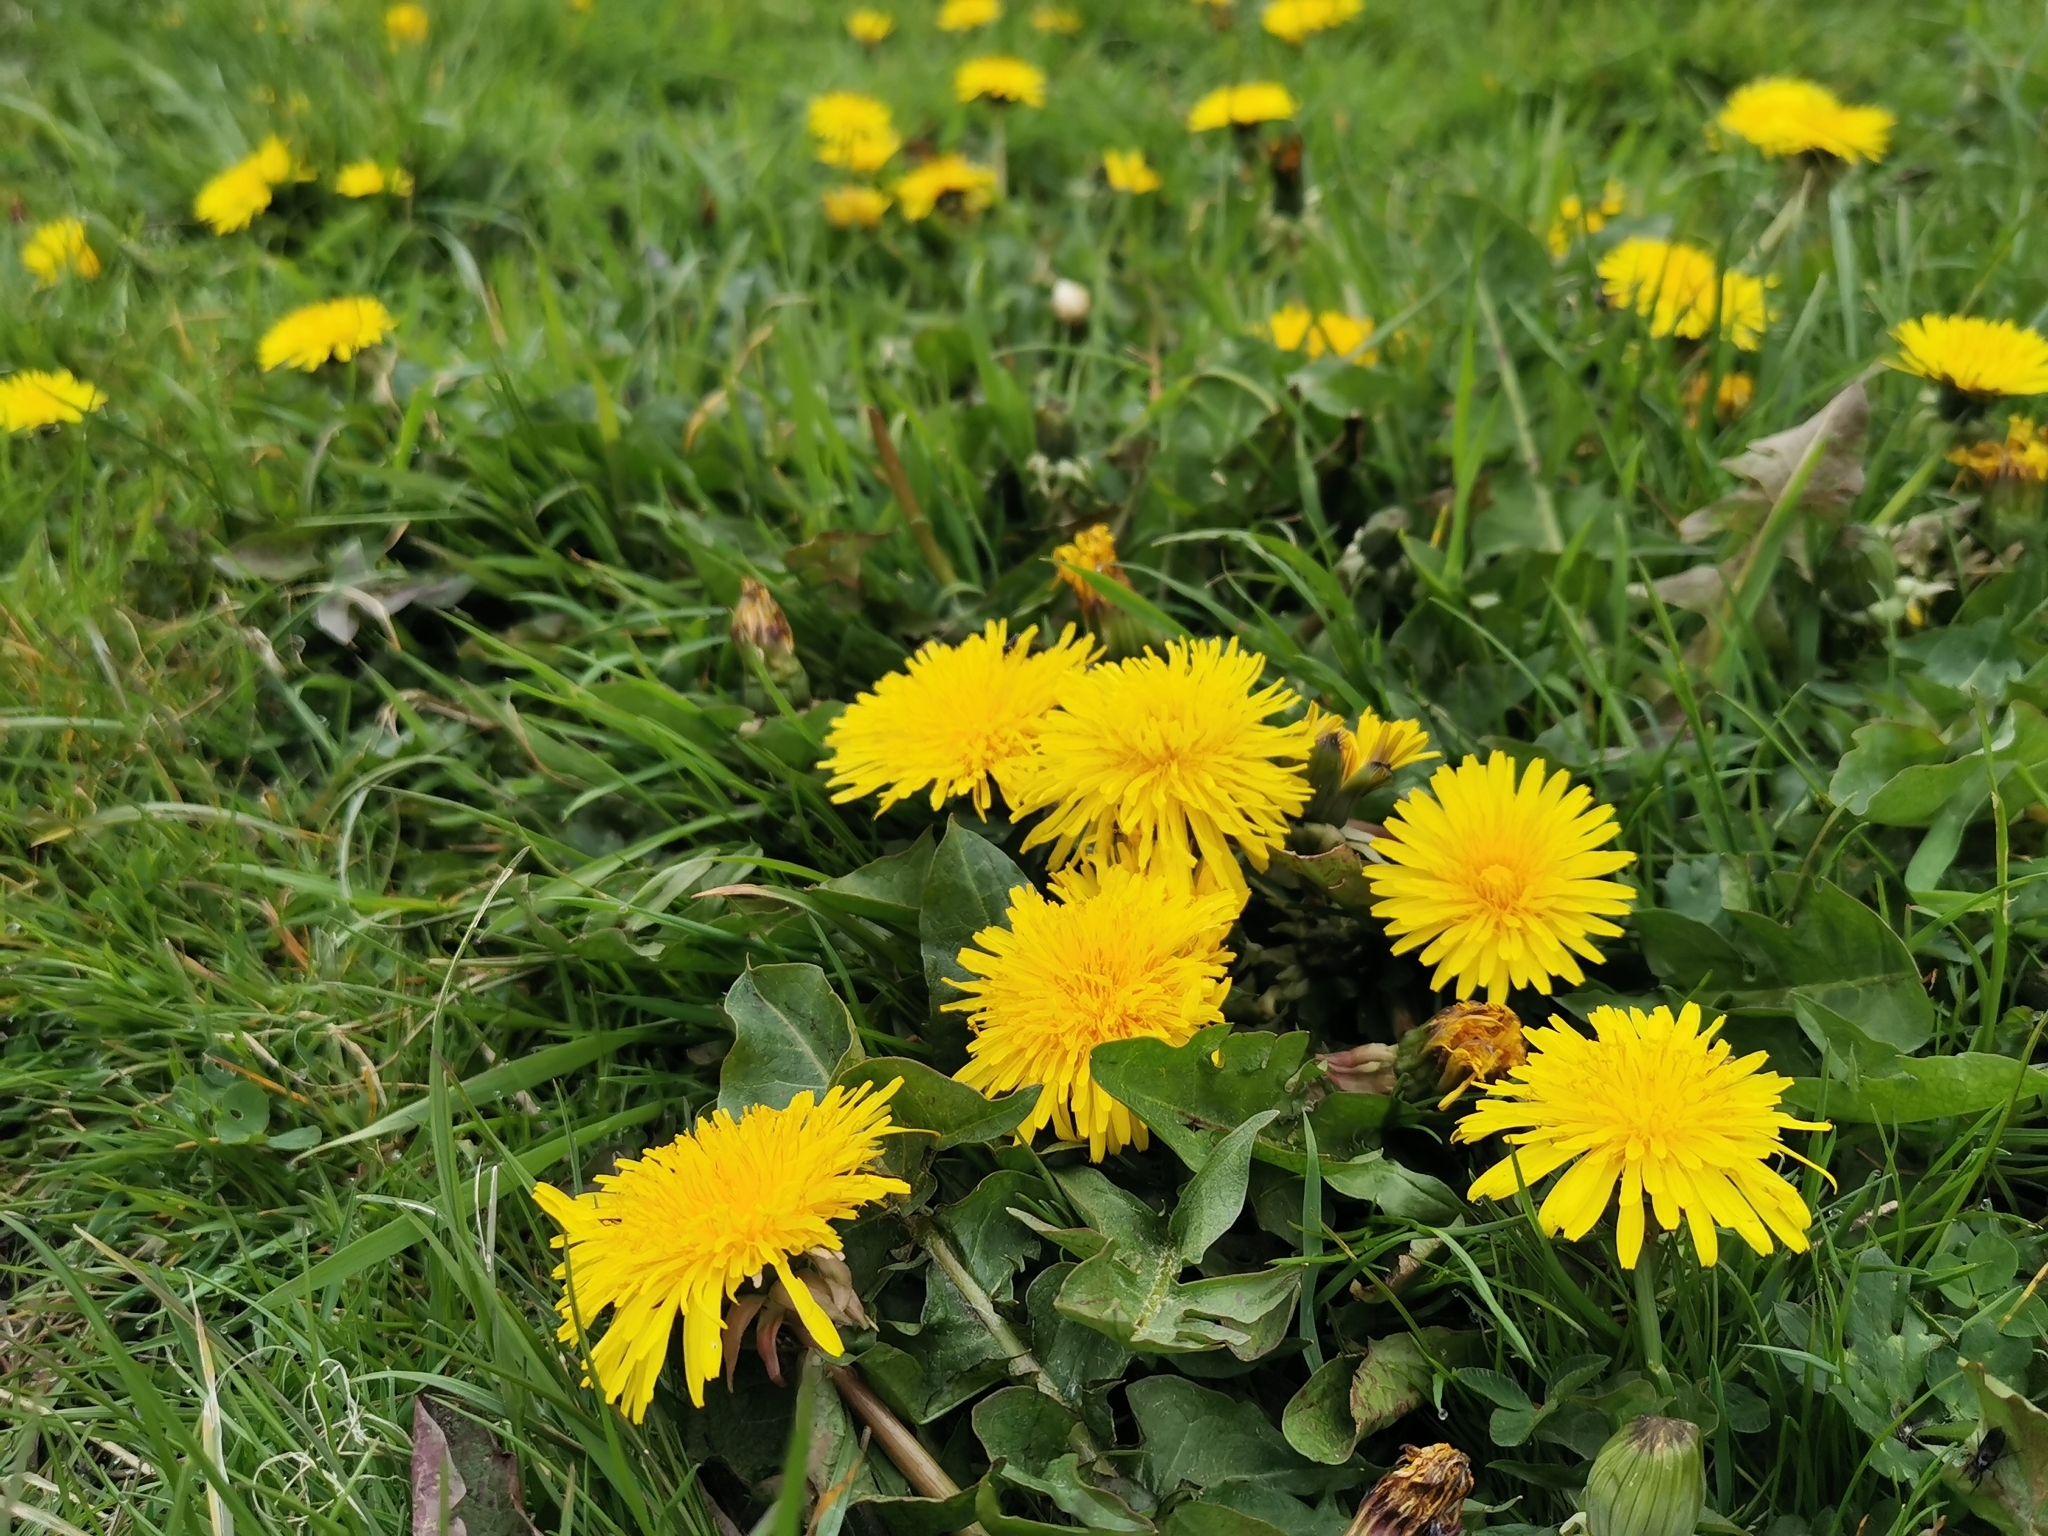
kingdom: Plantae
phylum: Tracheophyta
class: Magnoliopsida
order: Asterales
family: Asteraceae
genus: Taraxacum
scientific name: Taraxacum officinale
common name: Common dandelion
